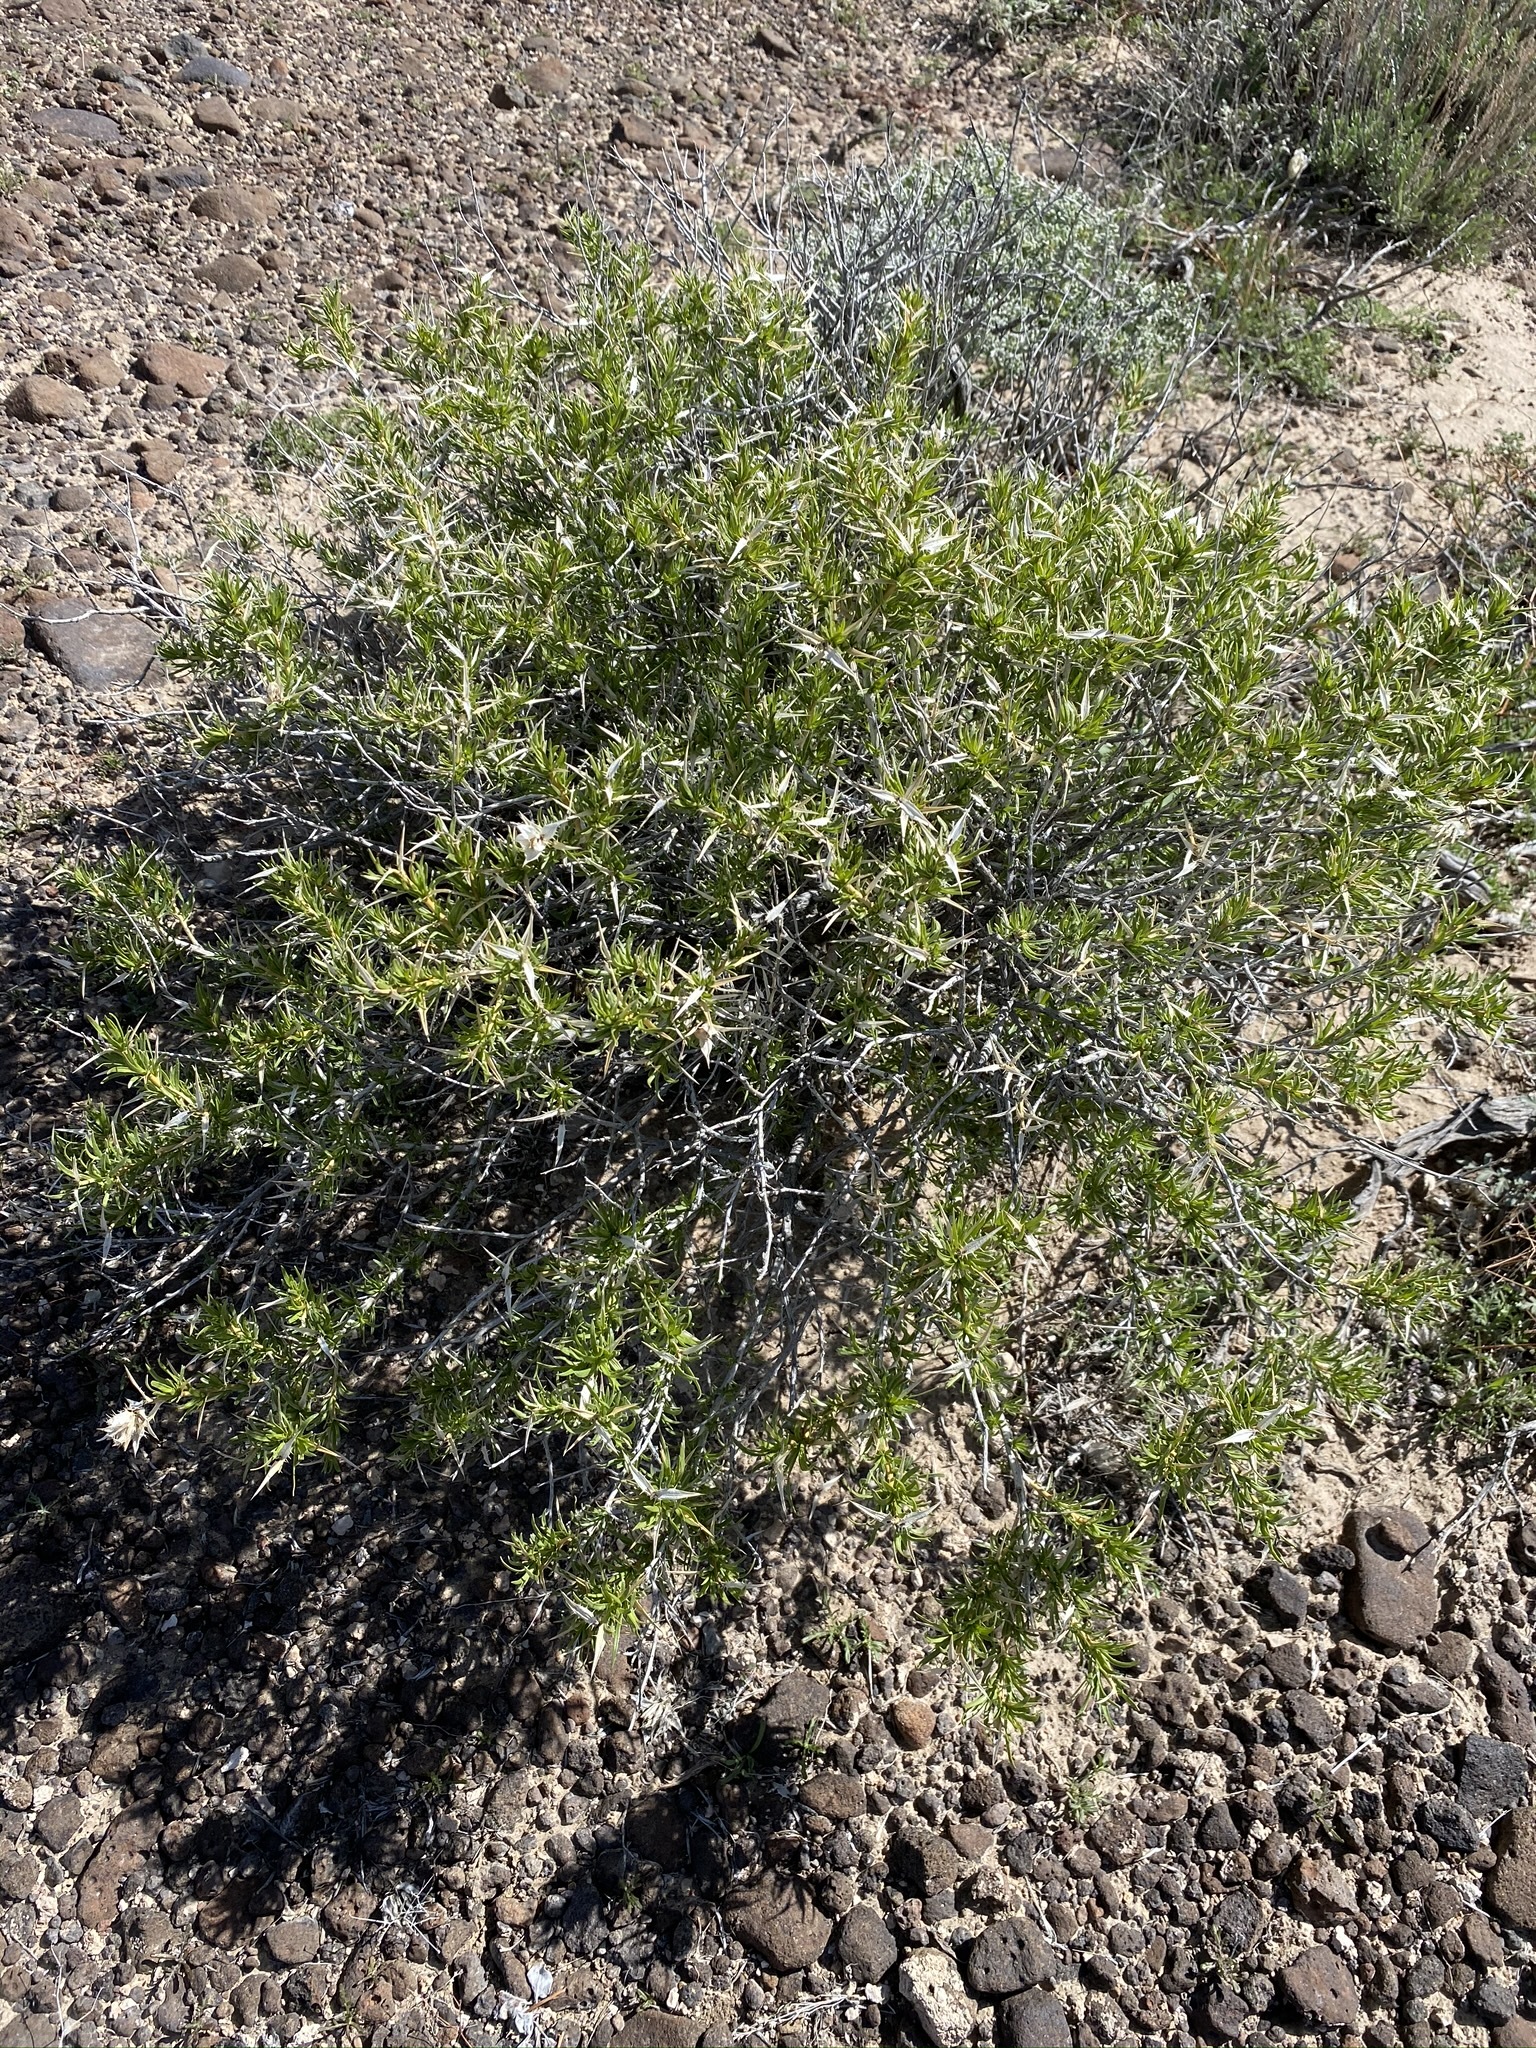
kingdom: Plantae
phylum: Tracheophyta
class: Magnoliopsida
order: Asterales
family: Asteraceae
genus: Hecastocleis
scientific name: Hecastocleis shockleyi
